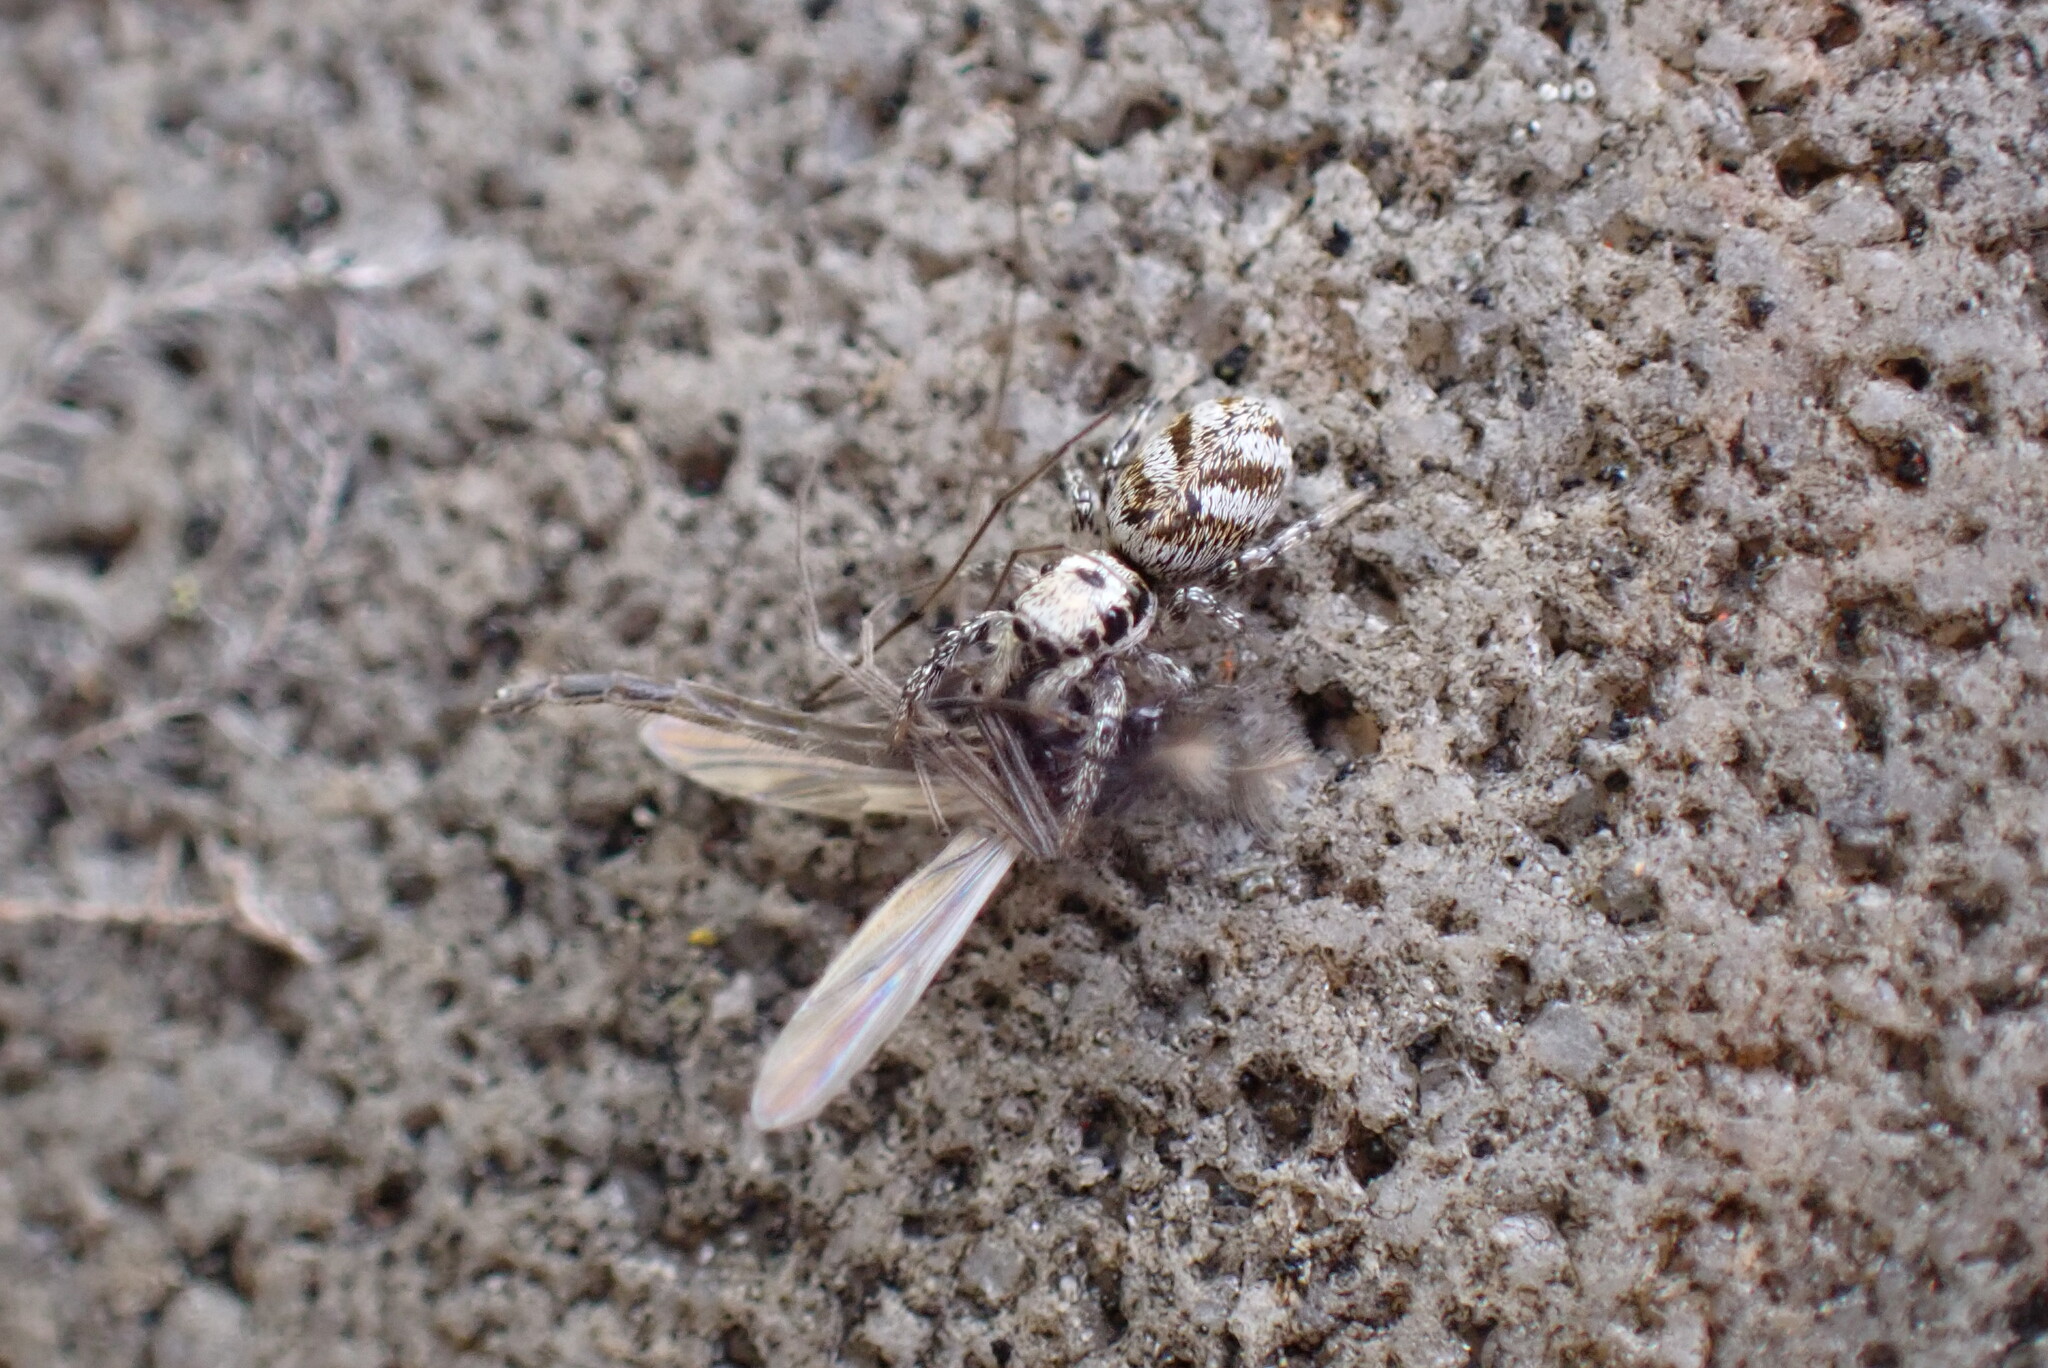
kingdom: Animalia
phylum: Arthropoda
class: Arachnida
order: Araneae
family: Salticidae
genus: Salticus
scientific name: Salticus scenicus
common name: Zebra jumper
